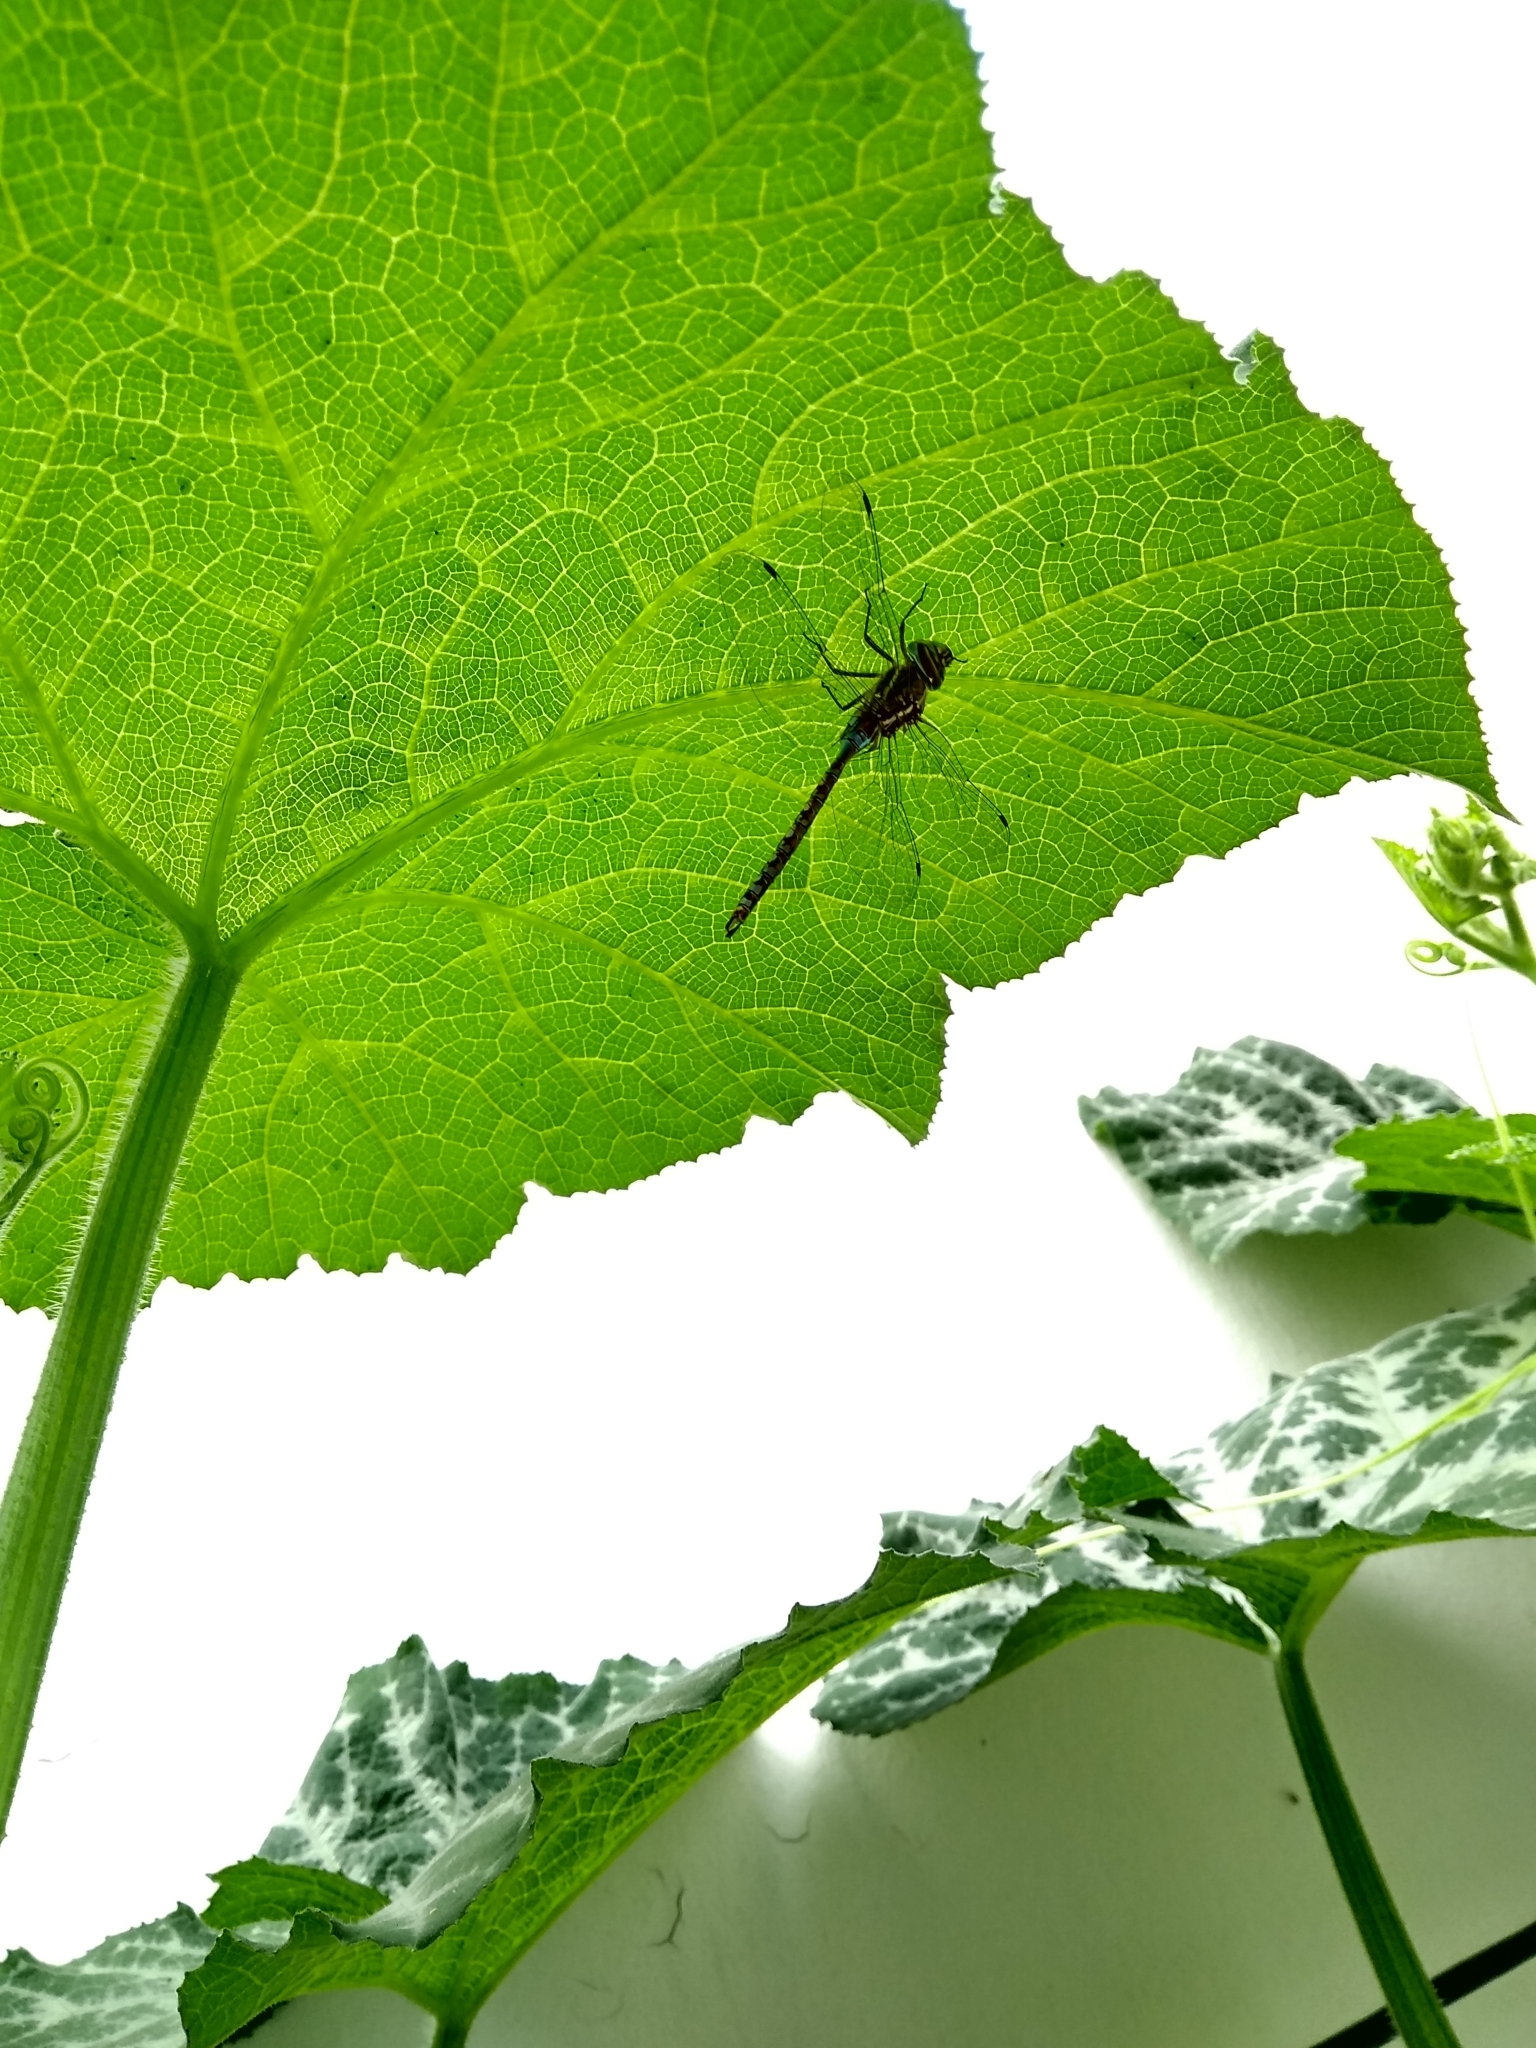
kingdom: Animalia
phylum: Arthropoda
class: Insecta
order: Odonata
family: Aeshnidae
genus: Rhionaeschna
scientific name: Rhionaeschna bonariensis
